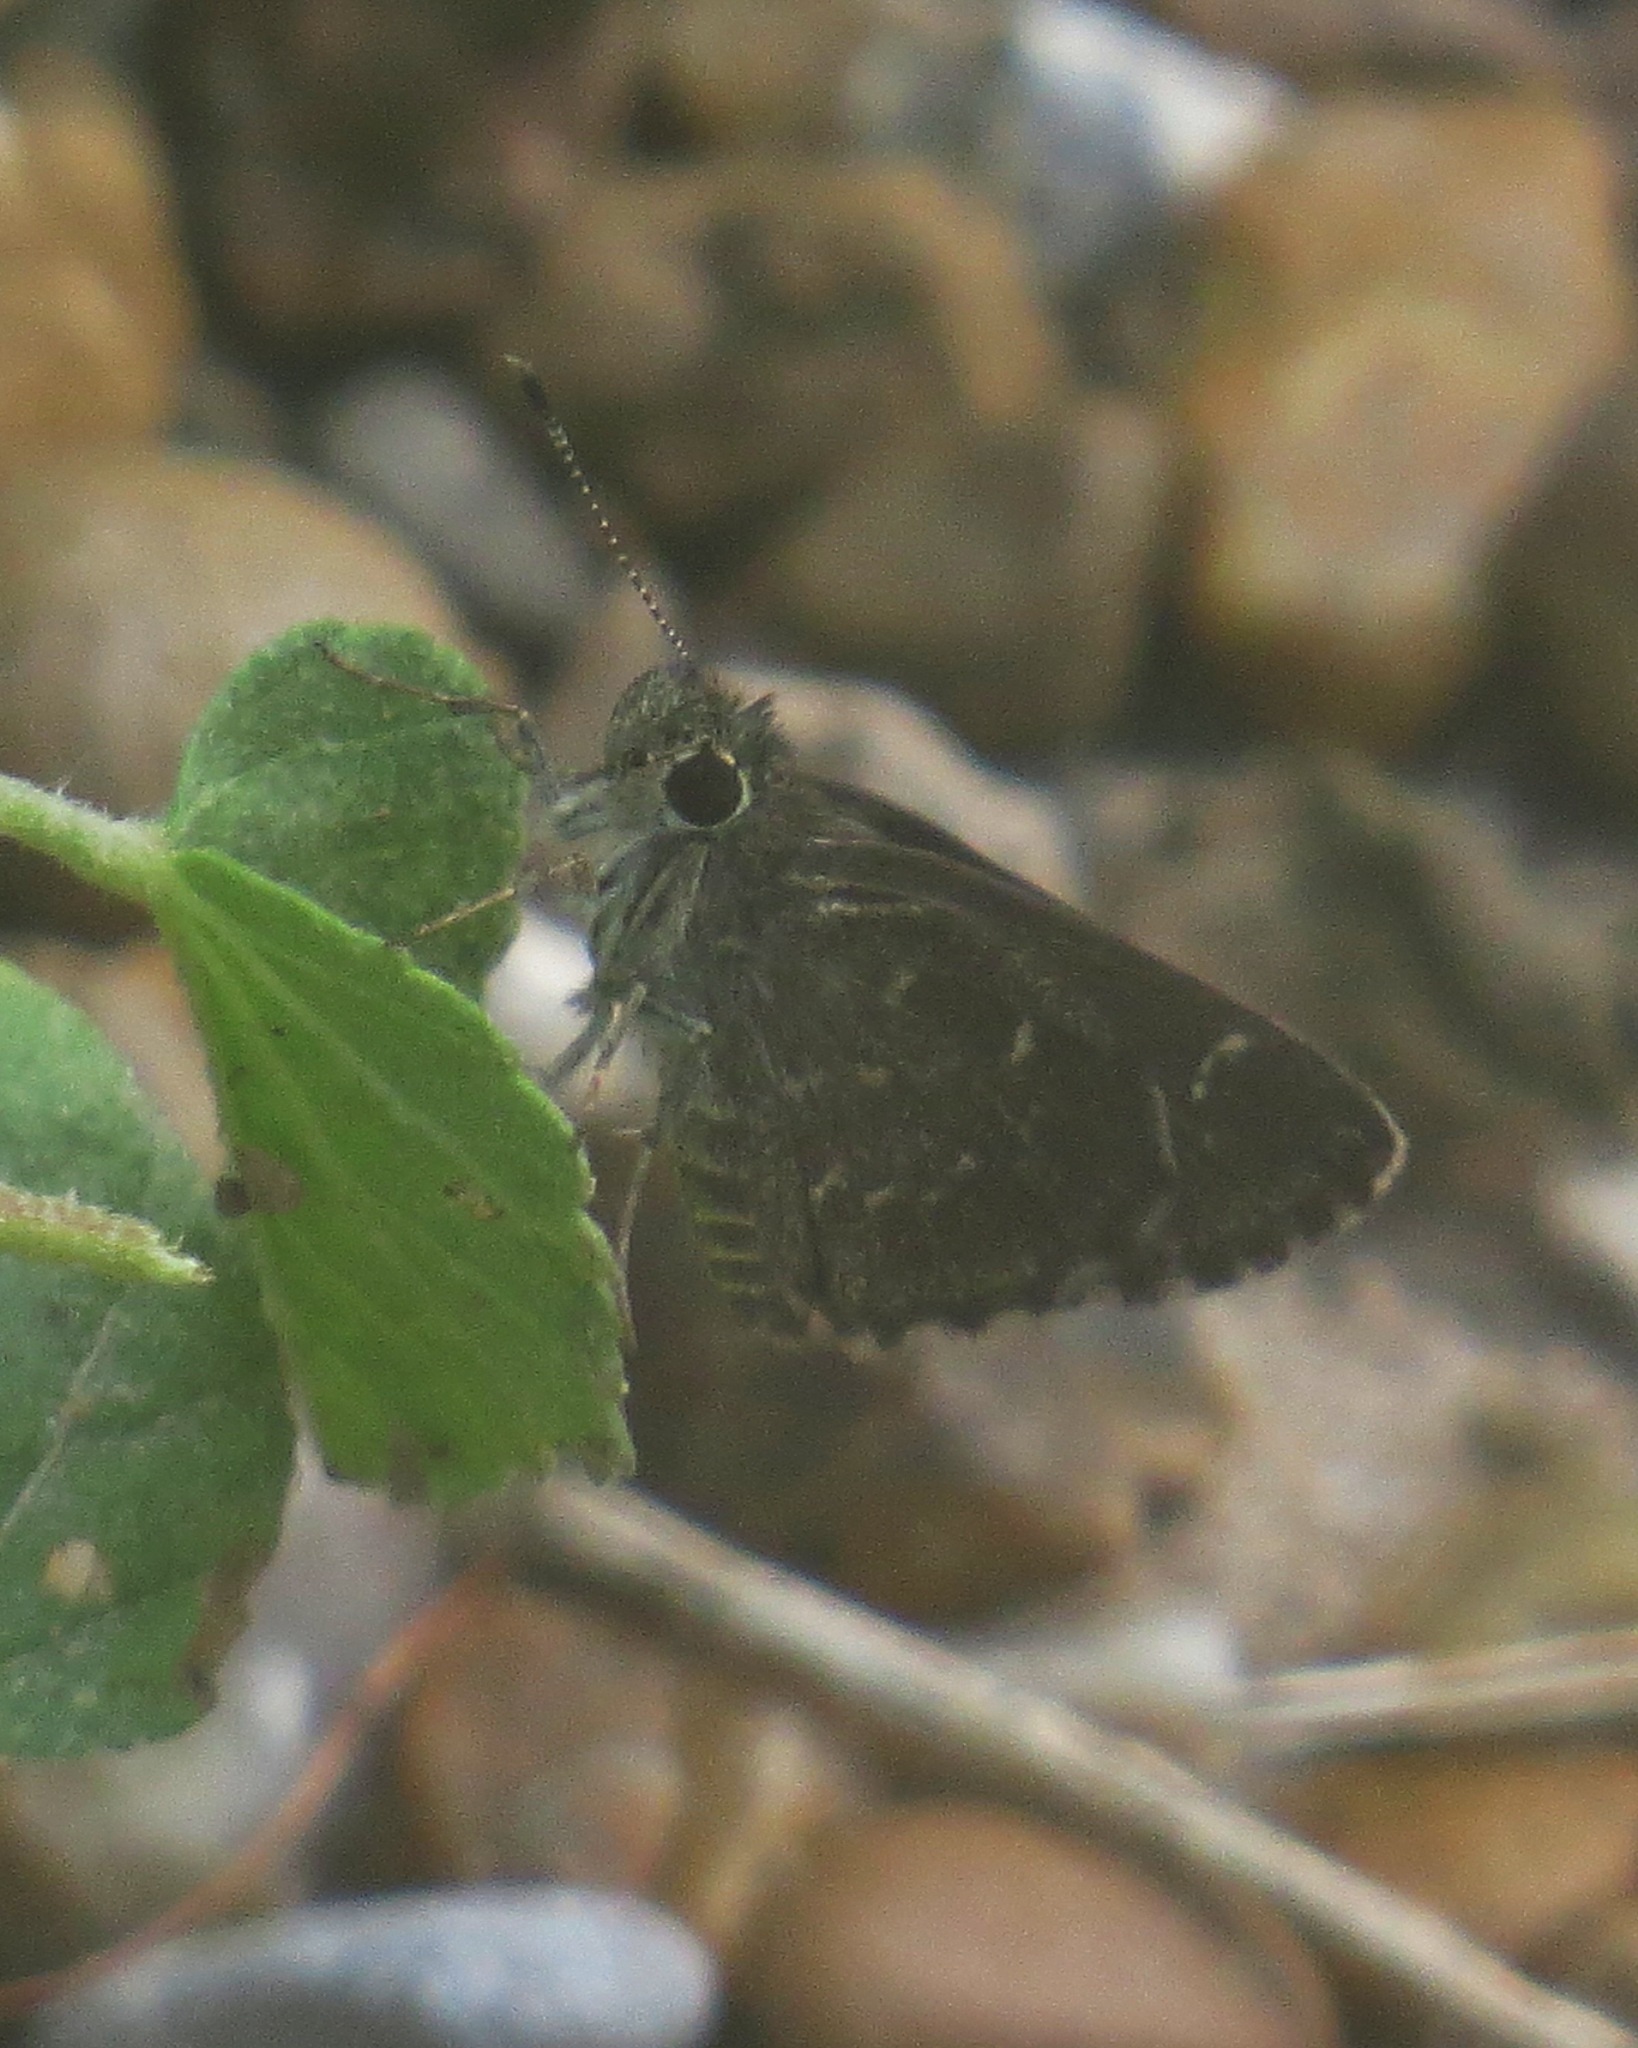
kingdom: Animalia
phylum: Arthropoda
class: Insecta
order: Lepidoptera
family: Hesperiidae
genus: Mastor
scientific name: Mastor celia
